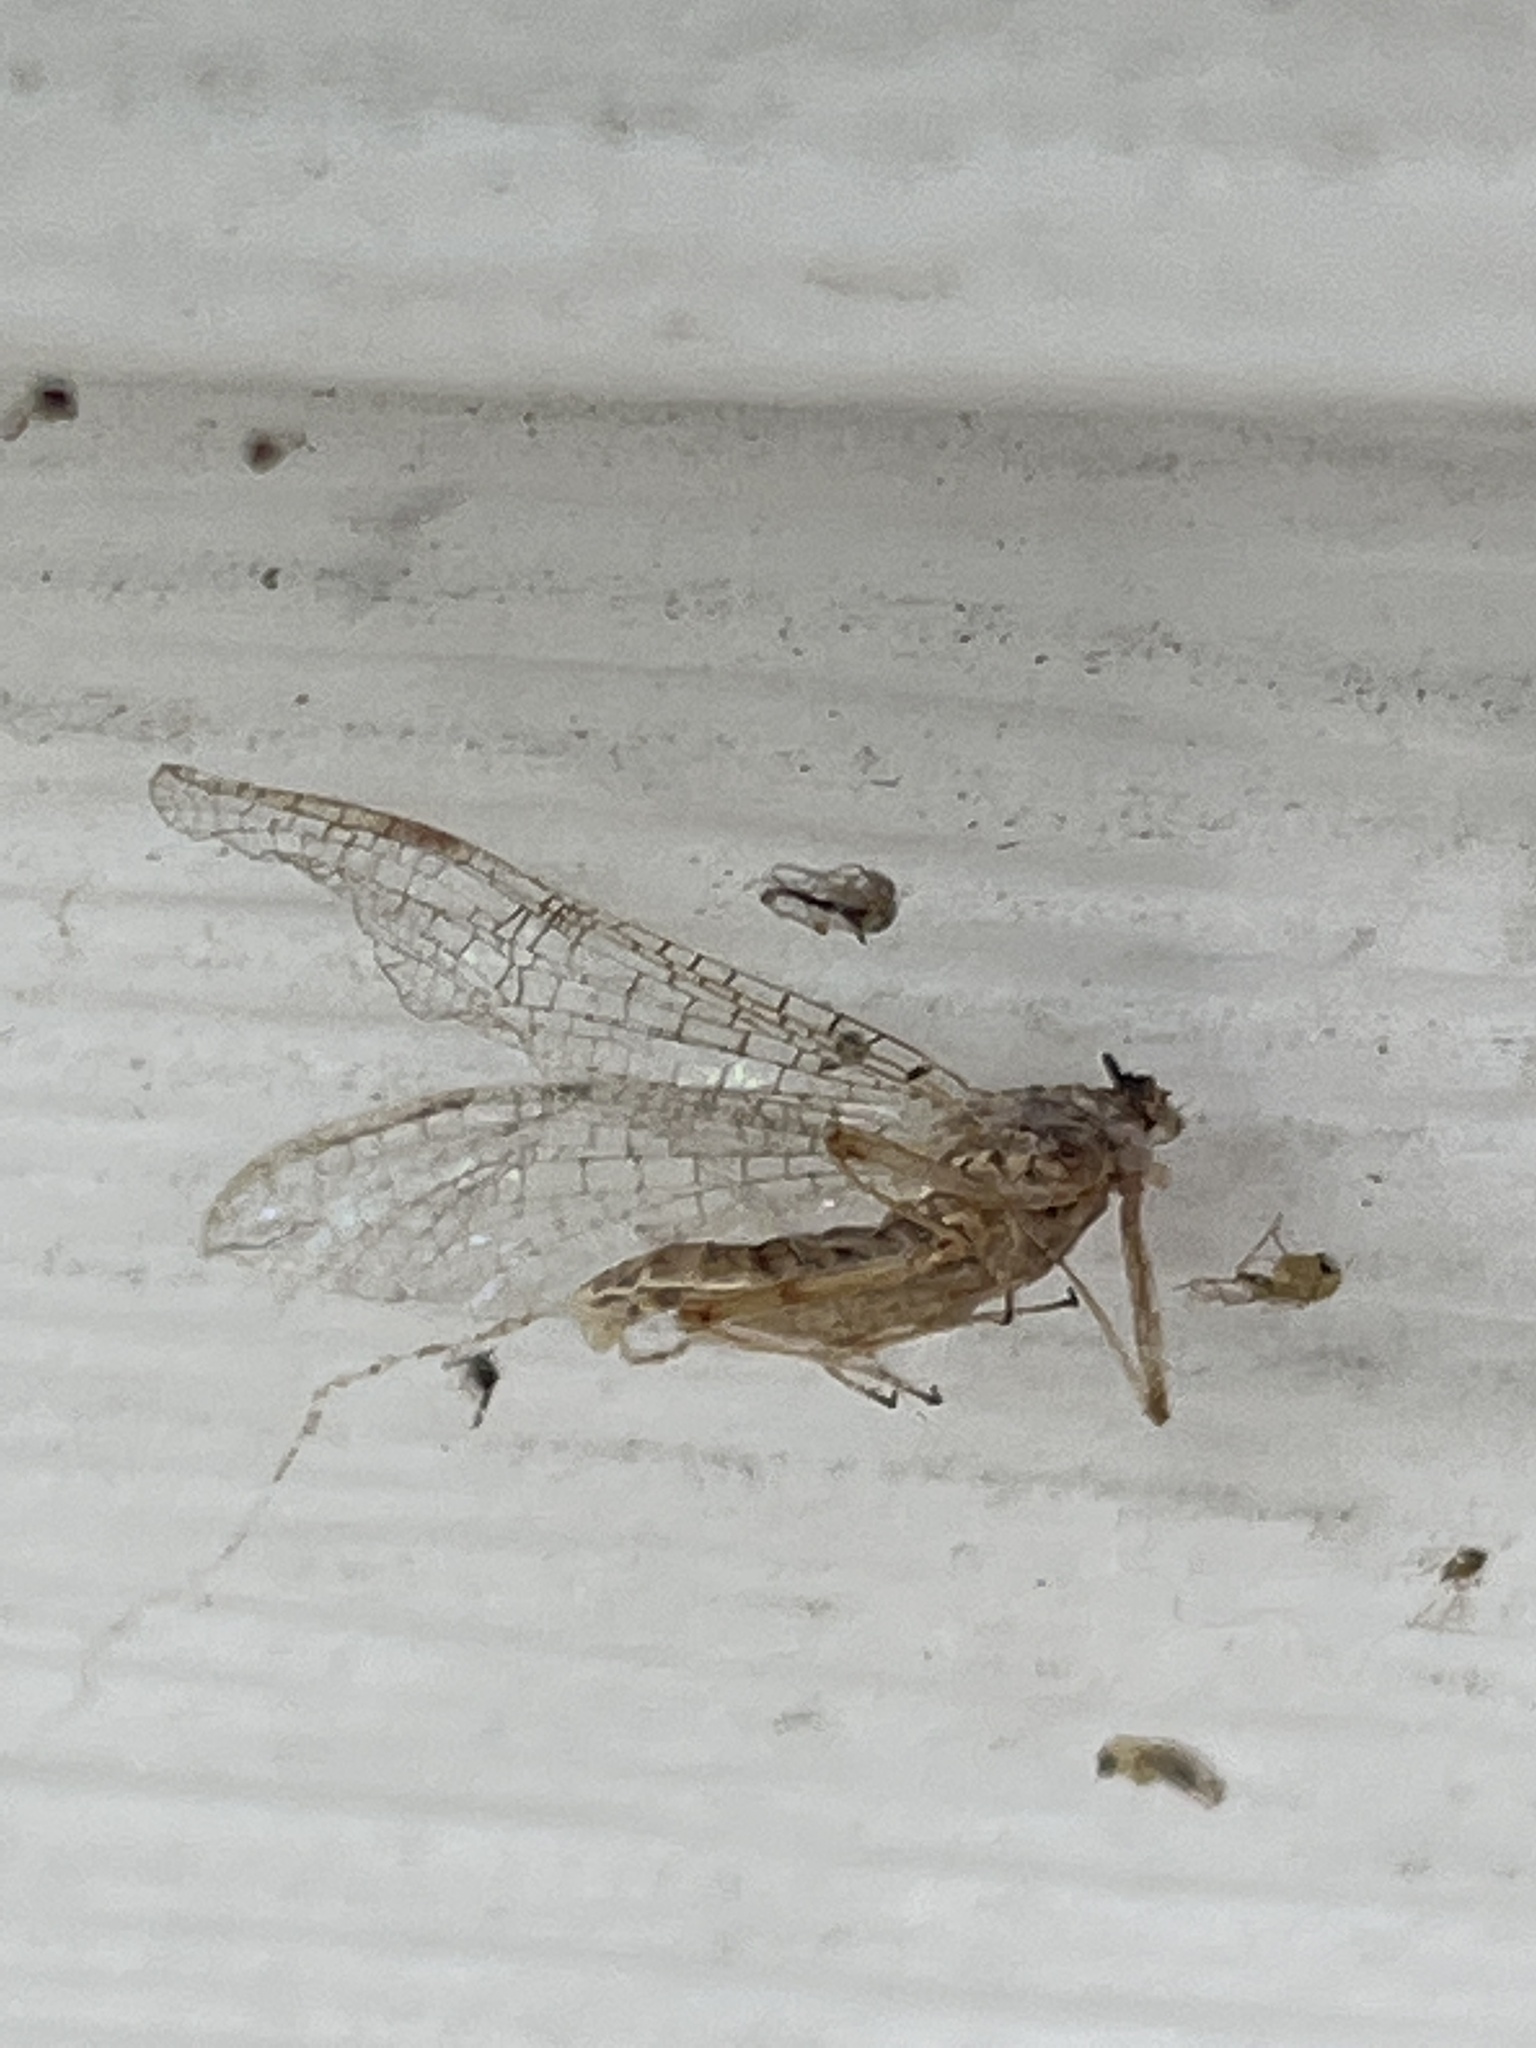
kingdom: Animalia
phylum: Arthropoda
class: Insecta
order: Ephemeroptera
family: Heptageniidae
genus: Stenonema
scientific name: Stenonema femoratum
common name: Dark cahill
